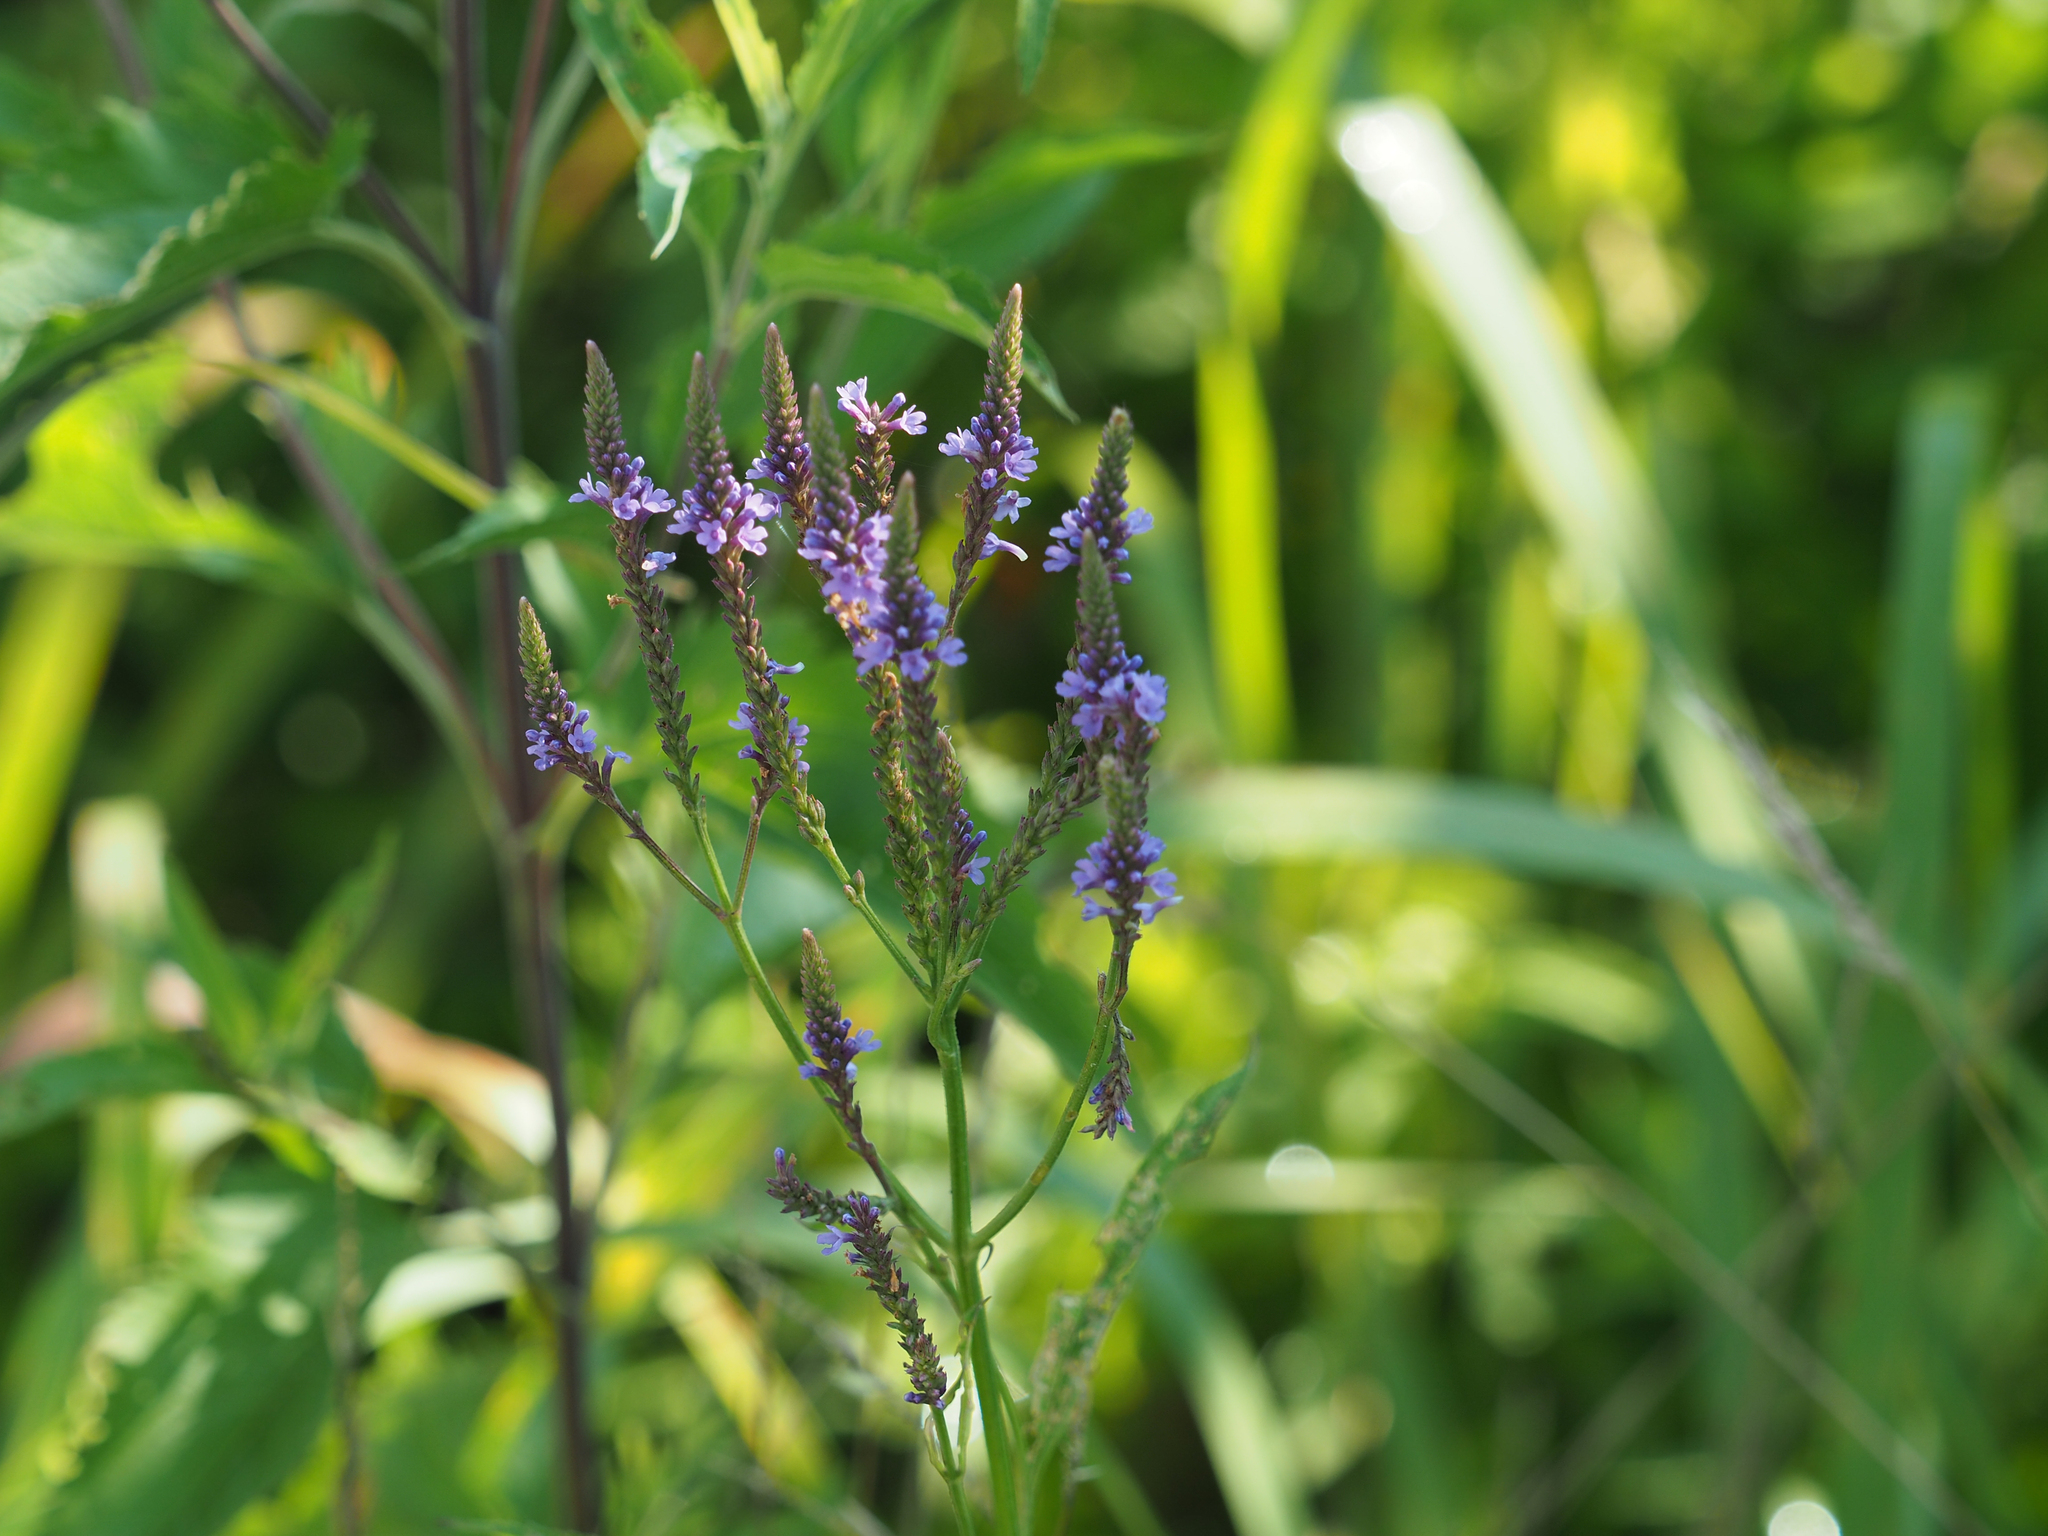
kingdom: Plantae
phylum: Tracheophyta
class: Magnoliopsida
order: Lamiales
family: Verbenaceae
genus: Verbena
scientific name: Verbena hastata
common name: American blue vervain
